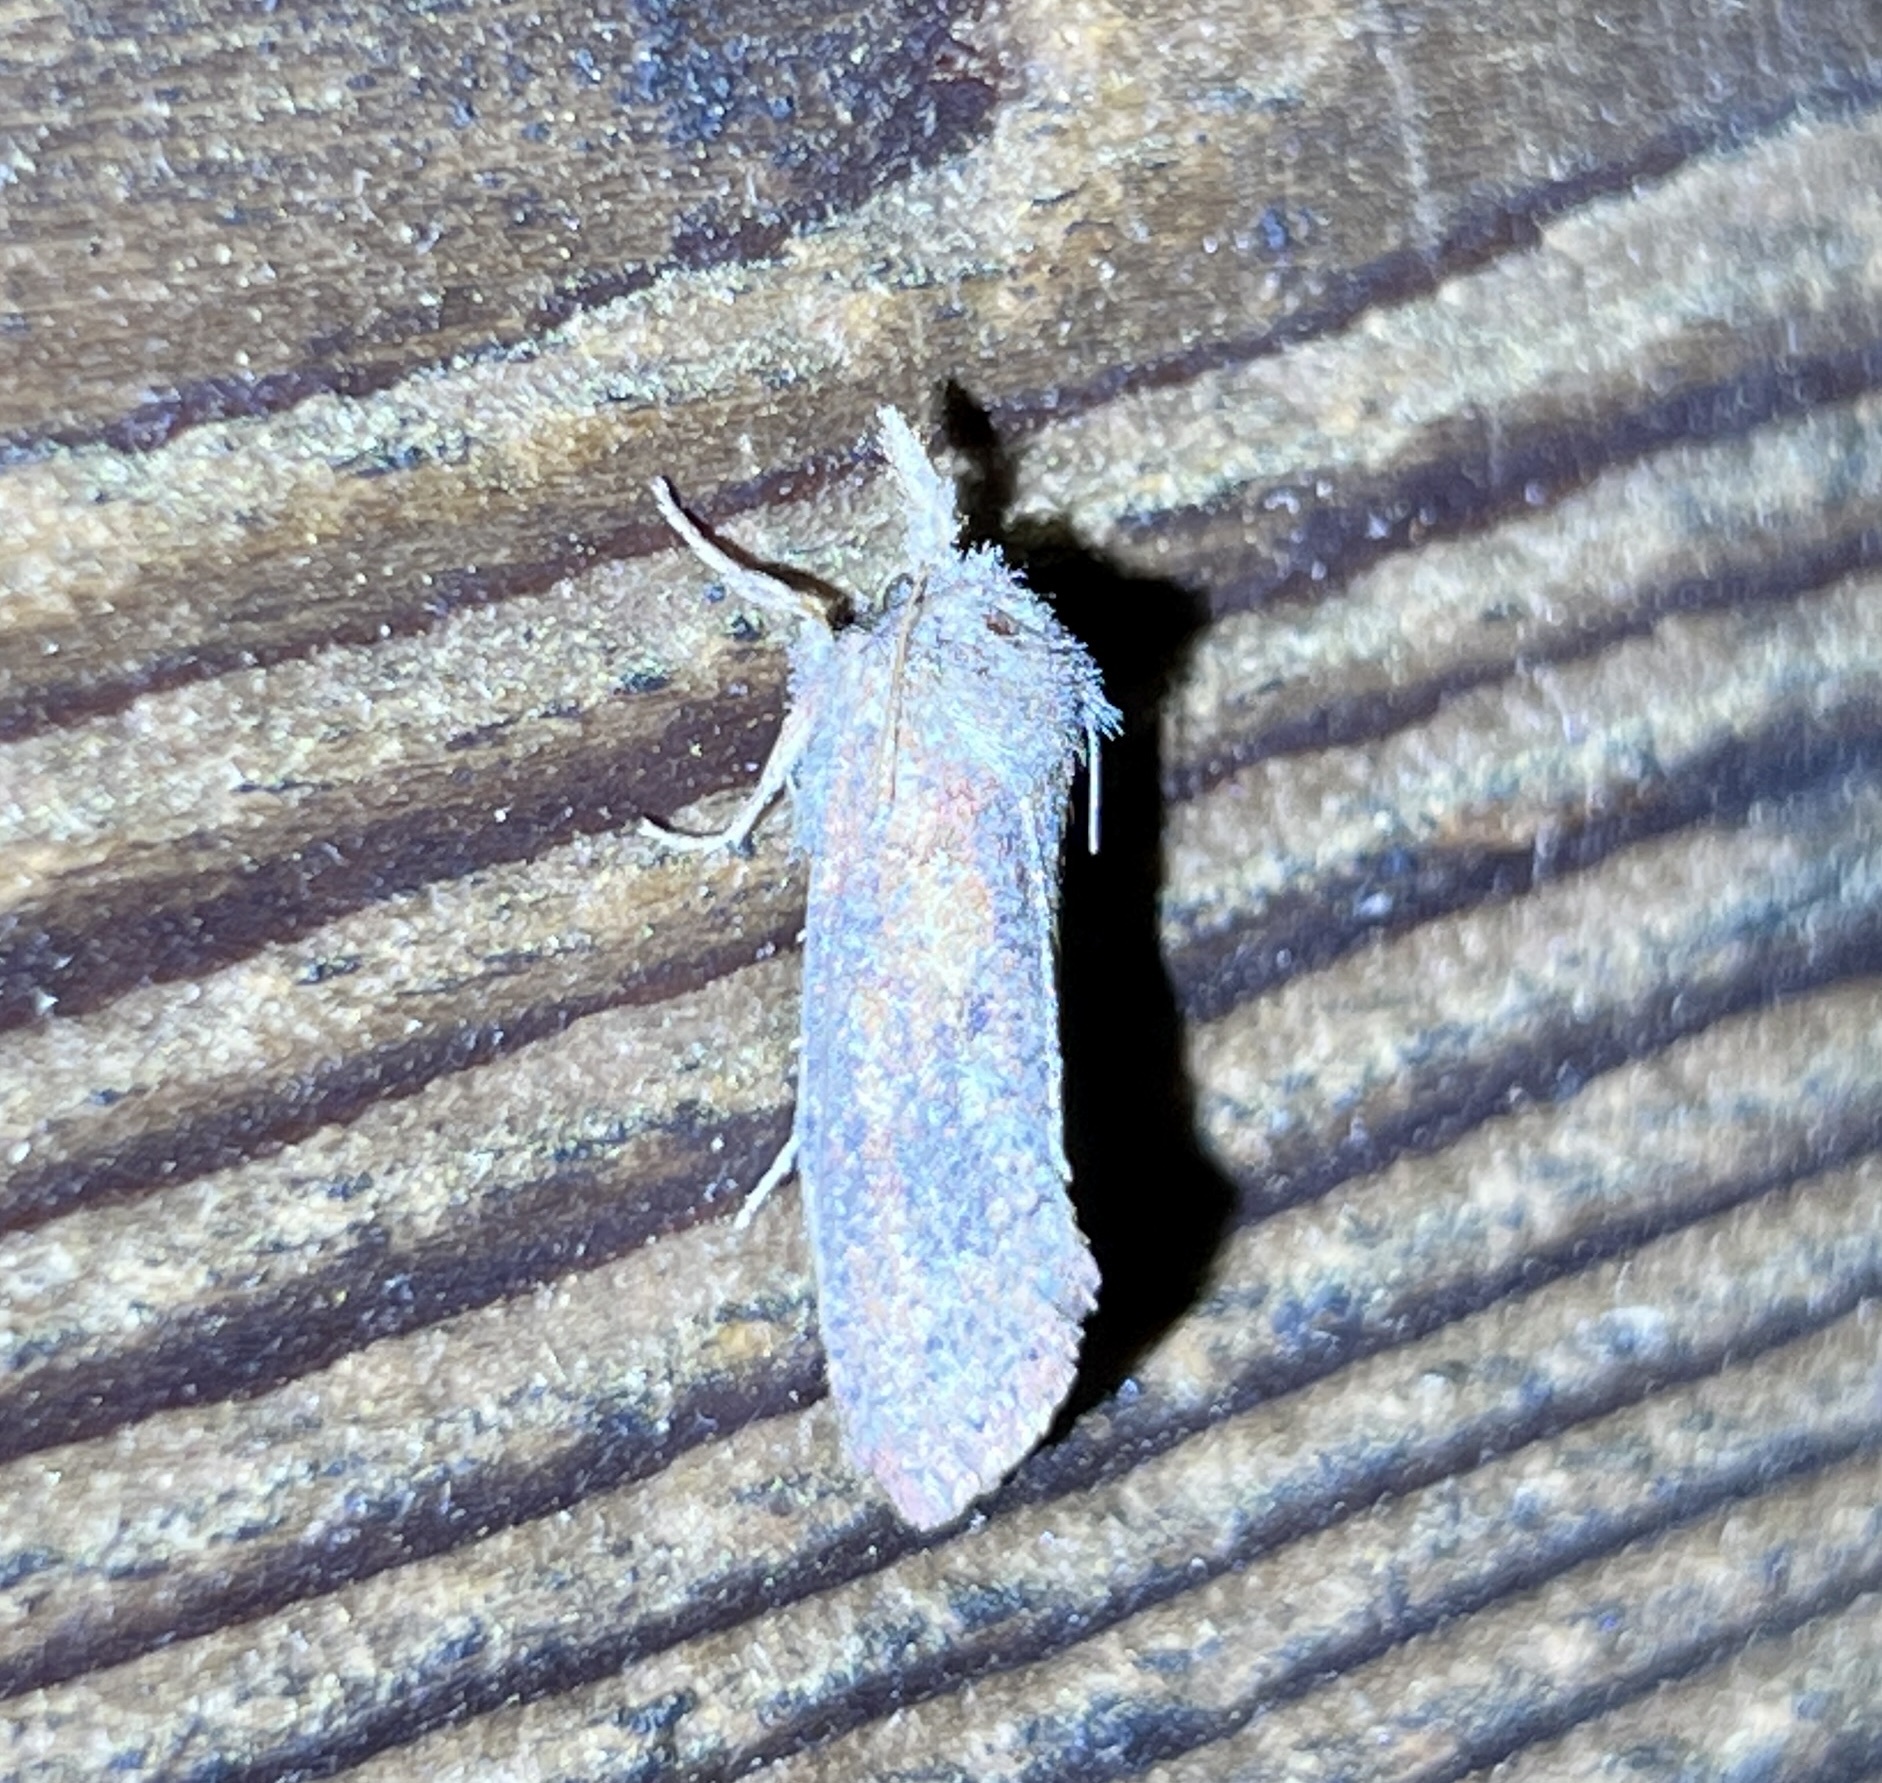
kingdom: Animalia
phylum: Arthropoda
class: Insecta
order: Lepidoptera
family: Tineidae
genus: Acrolophus
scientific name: Acrolophus plumifrontella
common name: Eastern grass tubeworm moth
